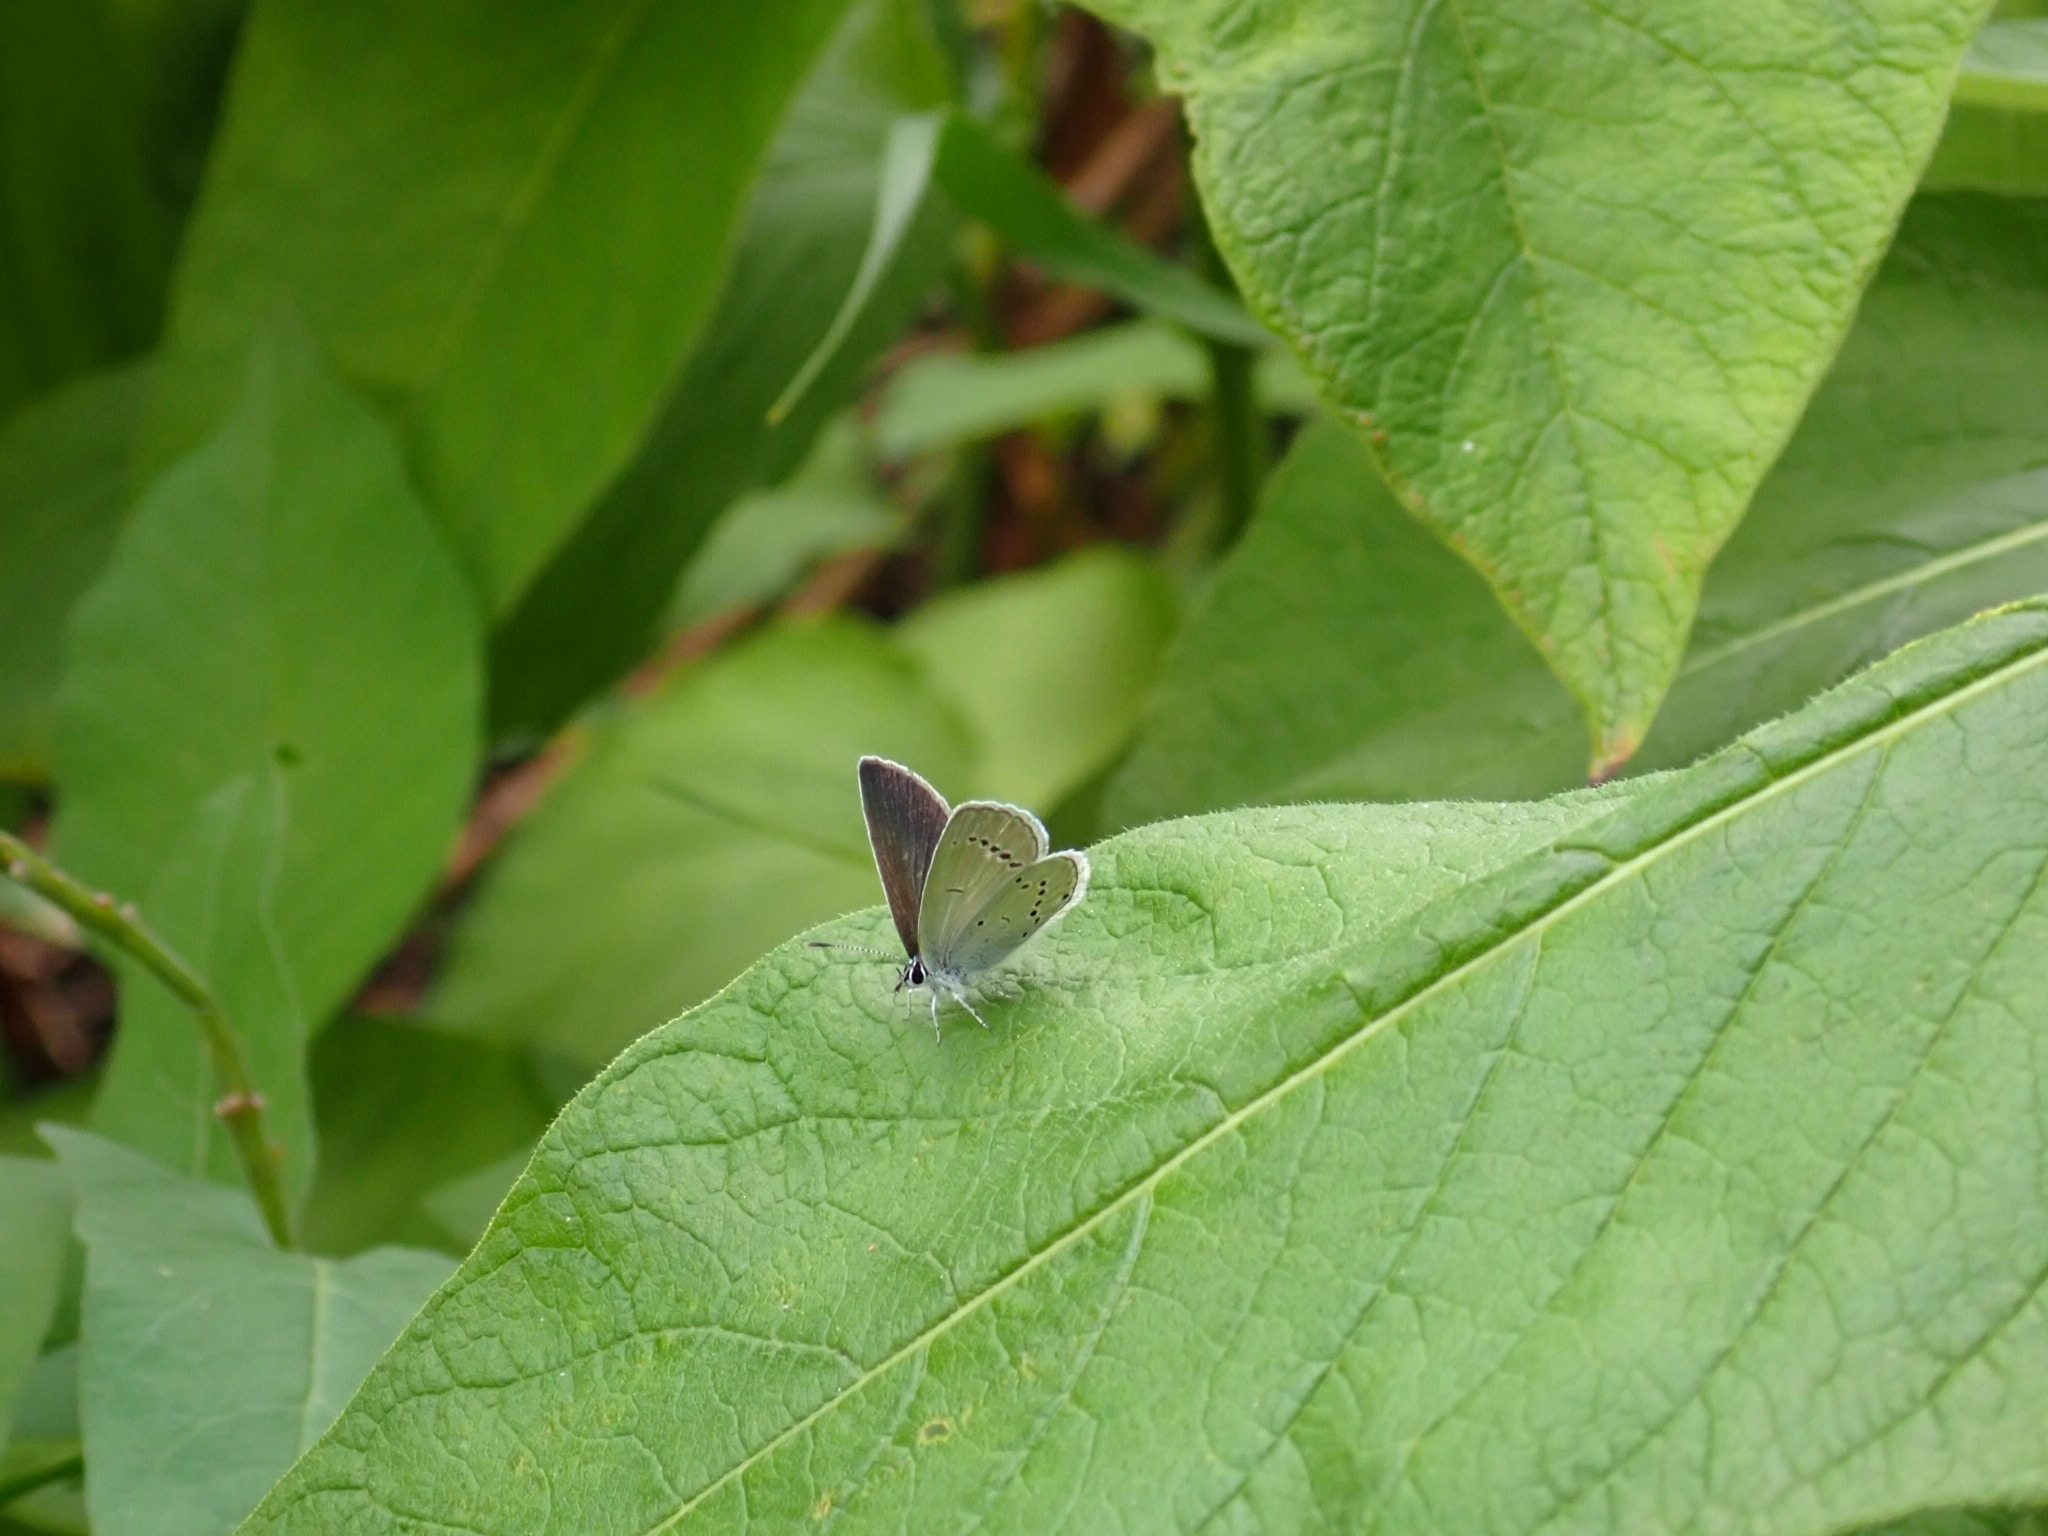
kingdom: Animalia
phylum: Arthropoda
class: Insecta
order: Lepidoptera
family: Lycaenidae
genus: Cupido
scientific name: Cupido minimus
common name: Small blue
